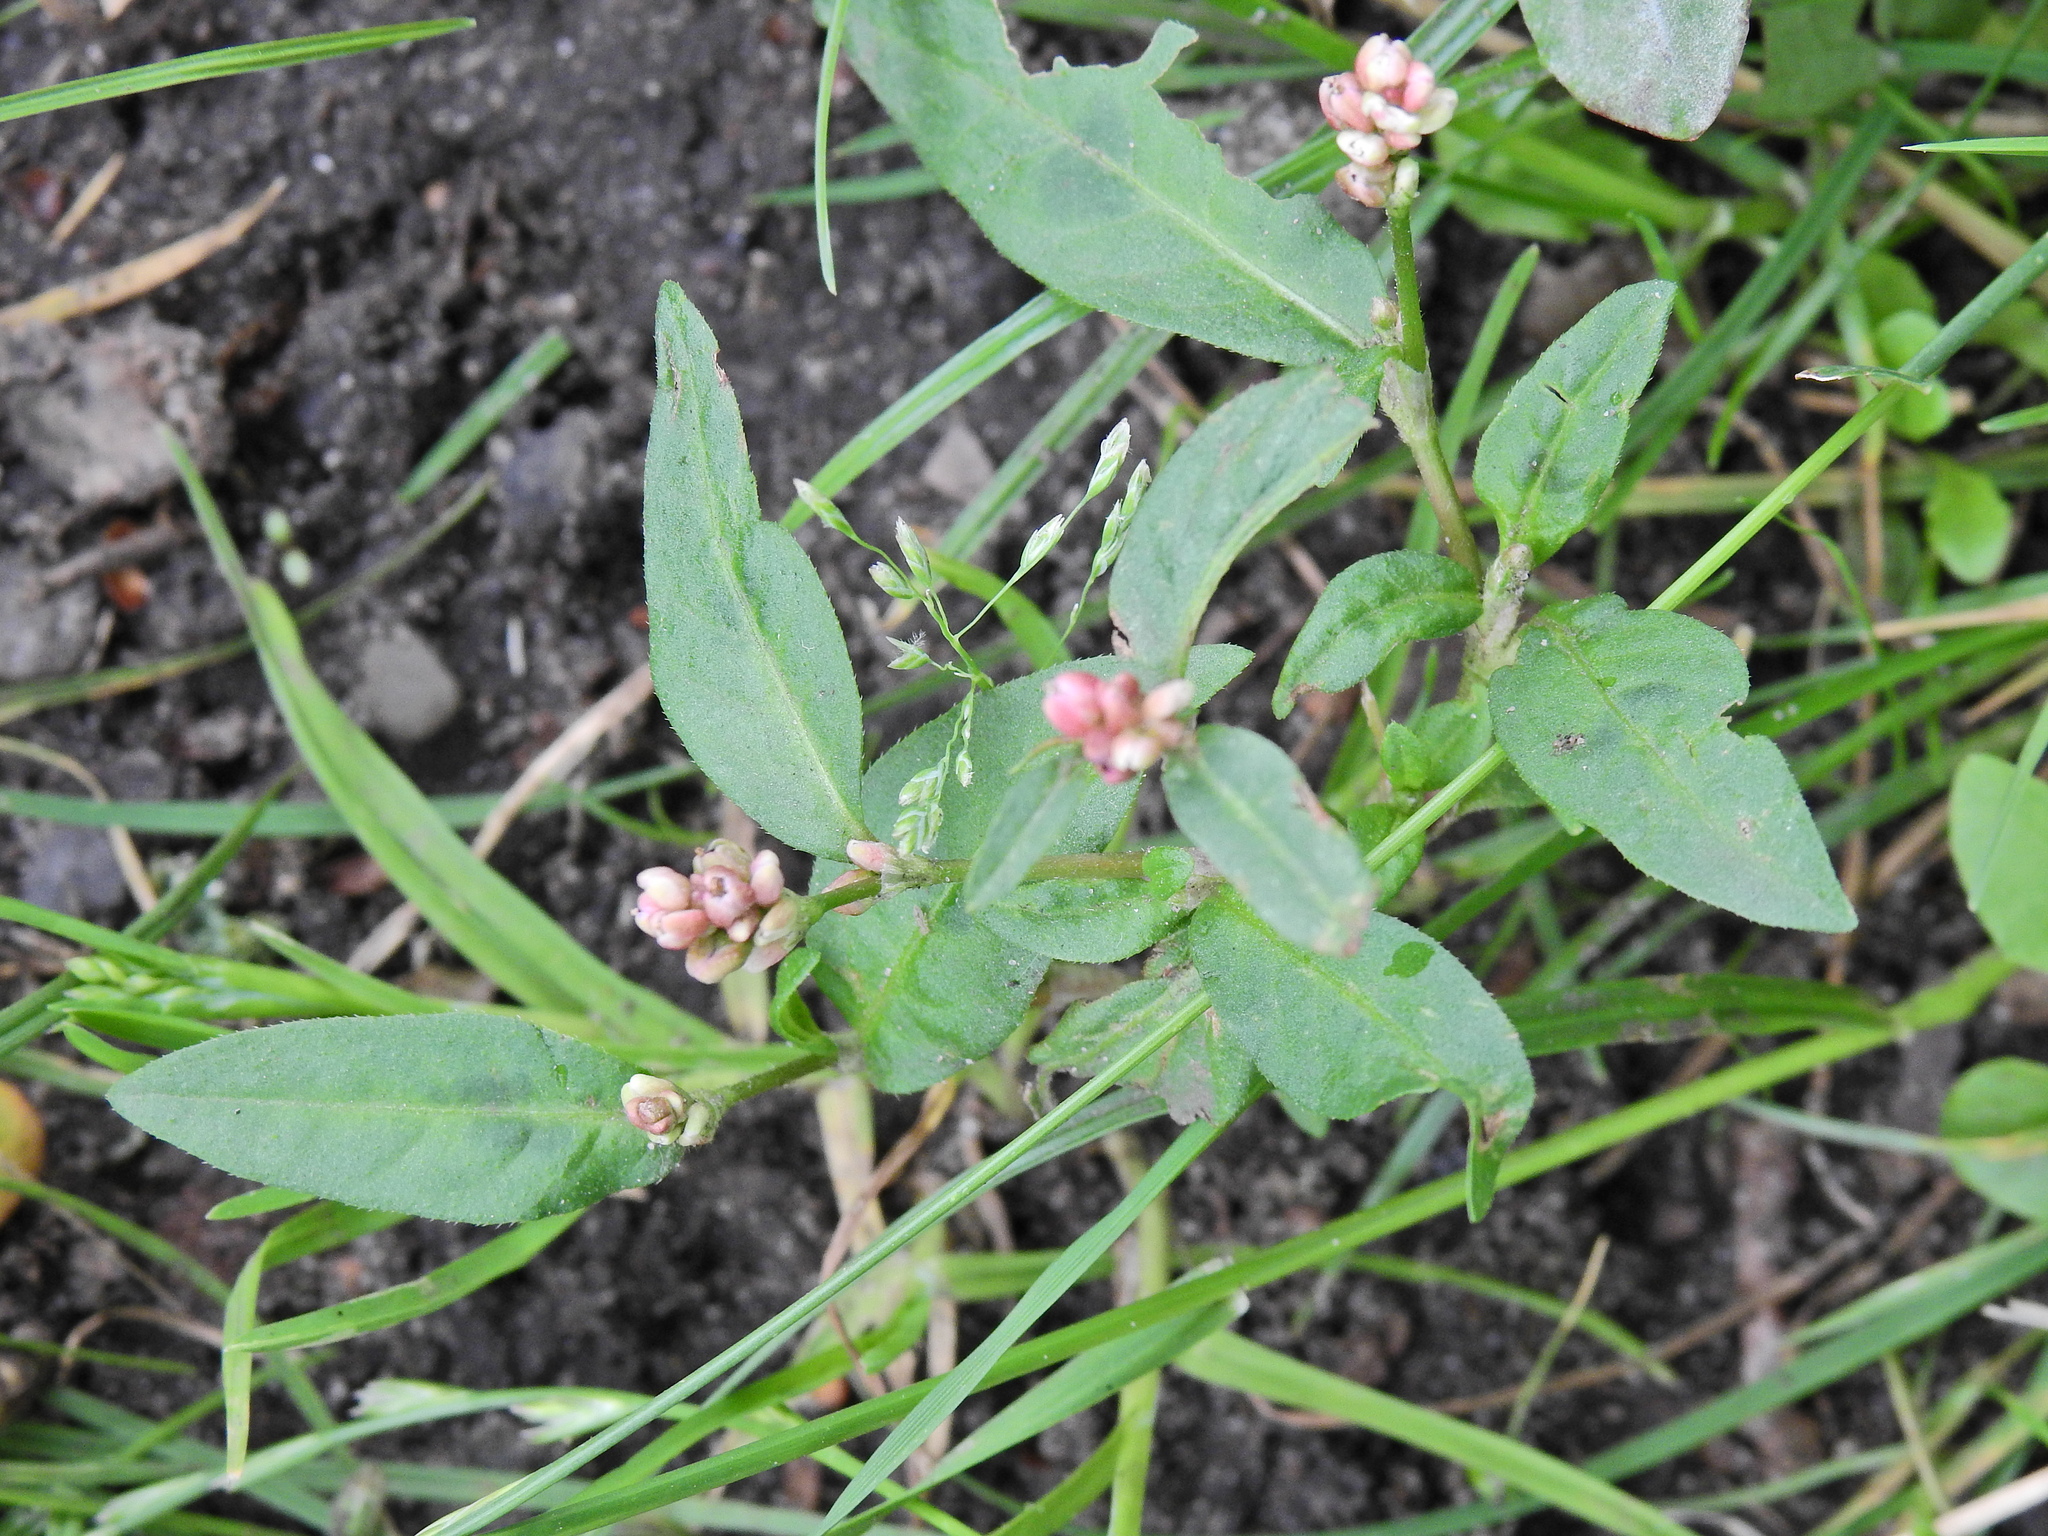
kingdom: Plantae
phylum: Tracheophyta
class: Magnoliopsida
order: Caryophyllales
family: Polygonaceae
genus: Persicaria
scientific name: Persicaria maculosa
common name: Redshank
